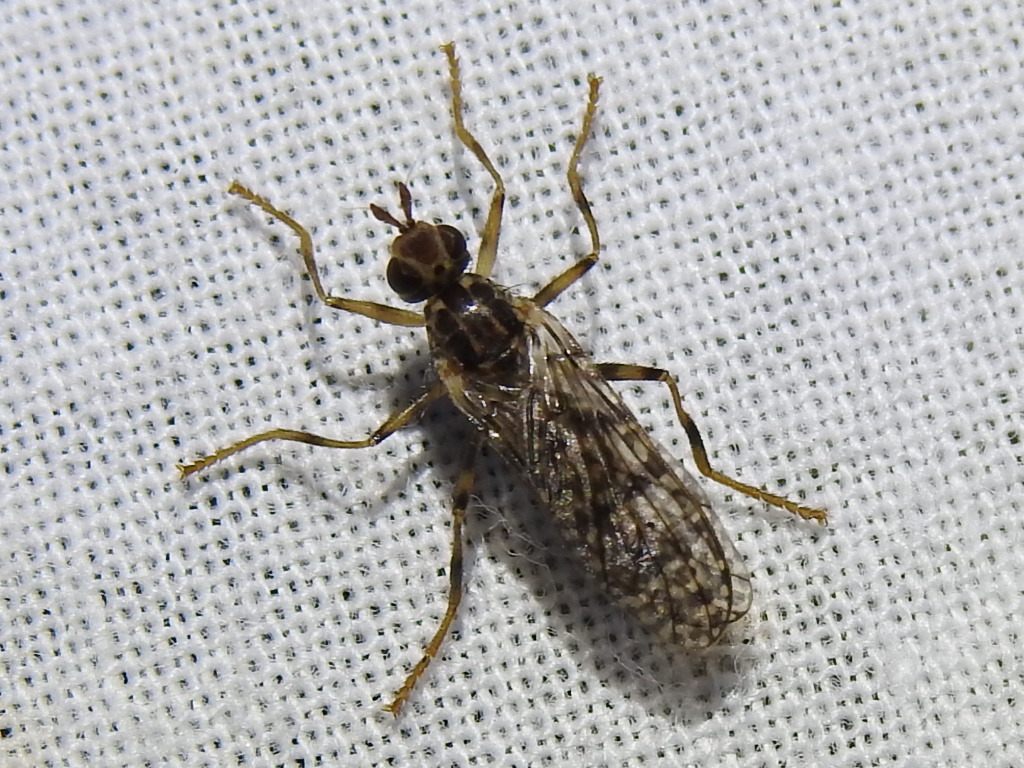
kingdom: Animalia
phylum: Arthropoda
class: Insecta
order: Diptera
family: Pyrgotidae
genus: Boreothrinax
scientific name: Boreothrinax
